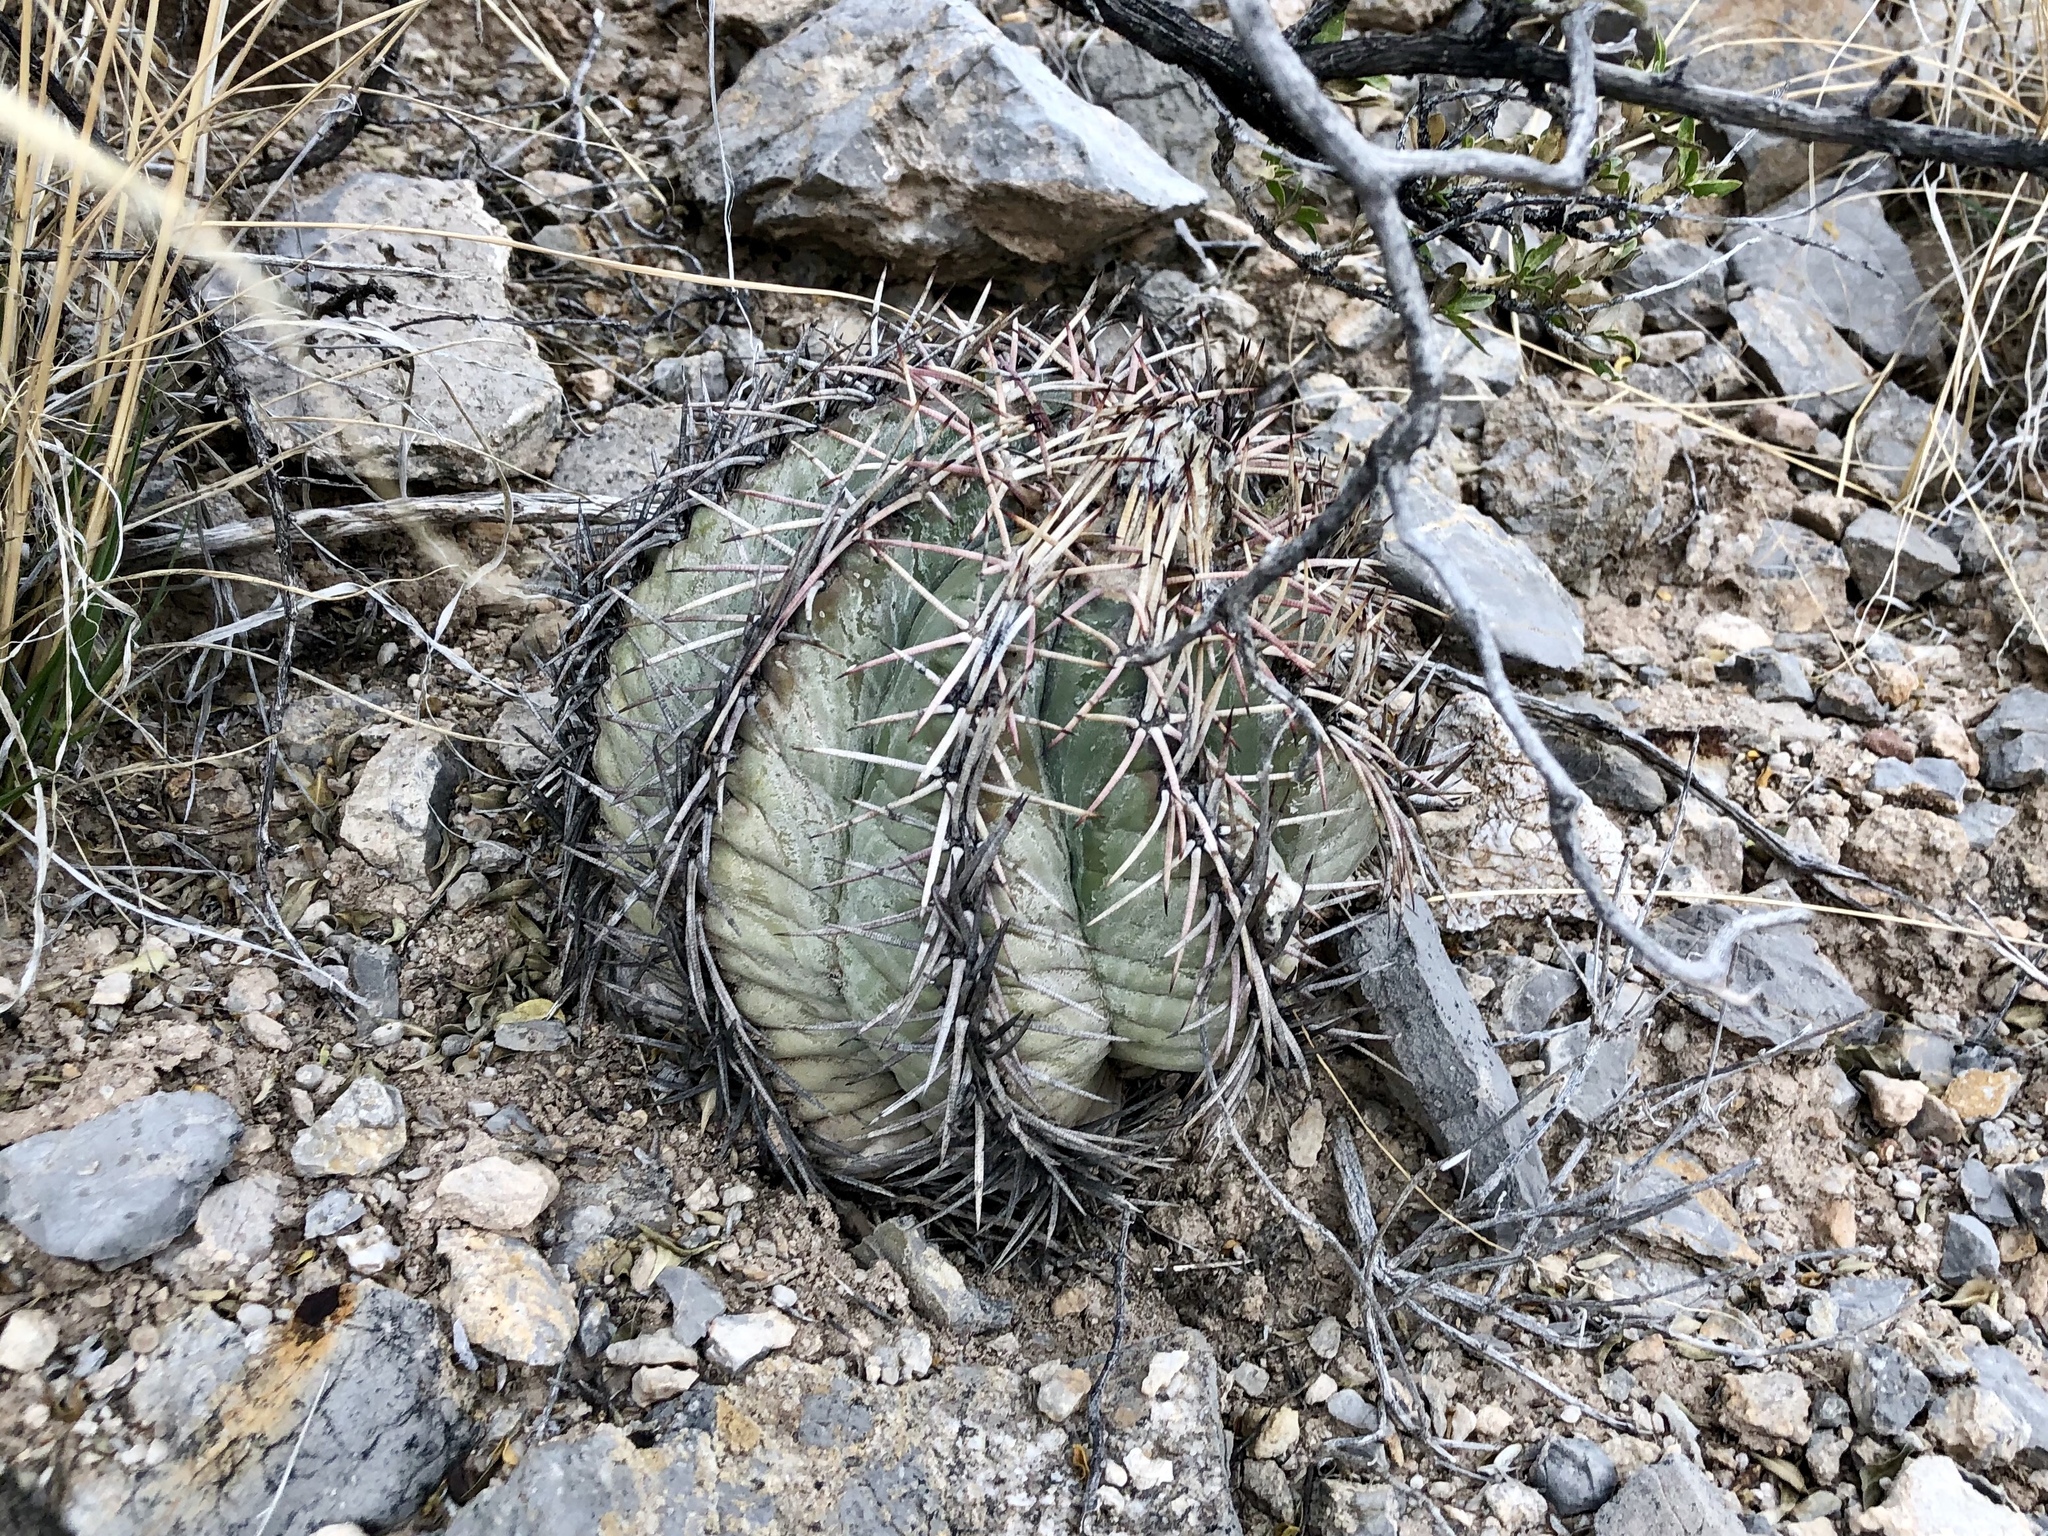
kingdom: Plantae
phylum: Tracheophyta
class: Magnoliopsida
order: Caryophyllales
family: Cactaceae
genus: Echinocactus
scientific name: Echinocactus horizonthalonius
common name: Devilshead
